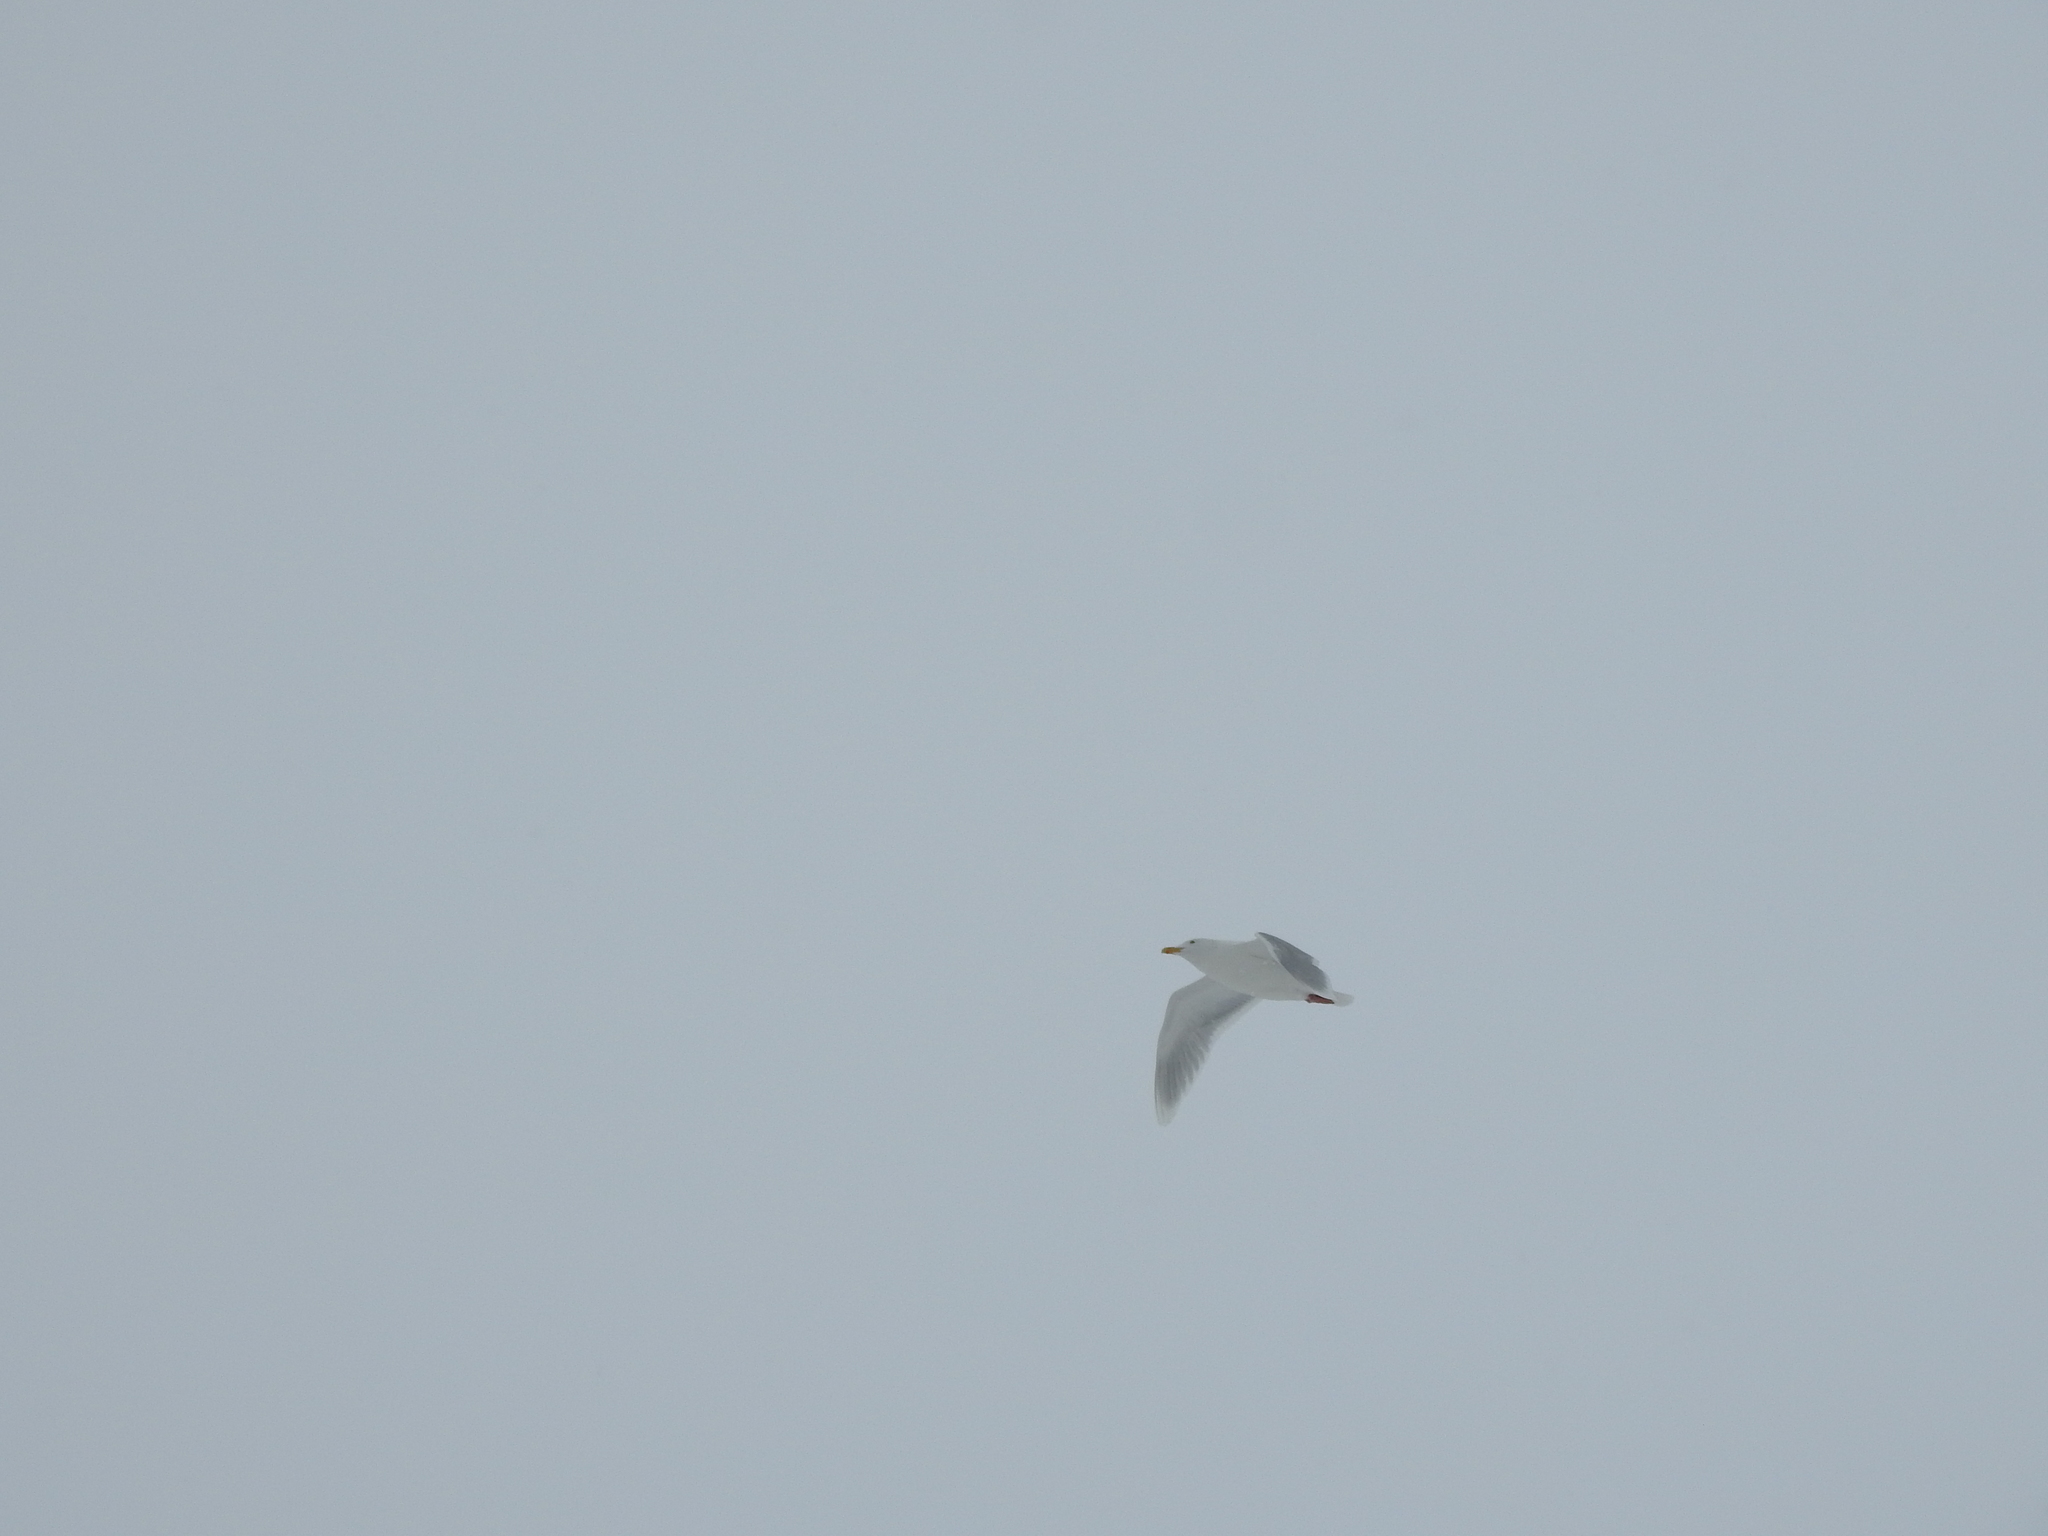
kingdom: Animalia
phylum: Chordata
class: Aves
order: Charadriiformes
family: Laridae
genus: Larus
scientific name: Larus hyperboreus
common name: Glaucous gull
